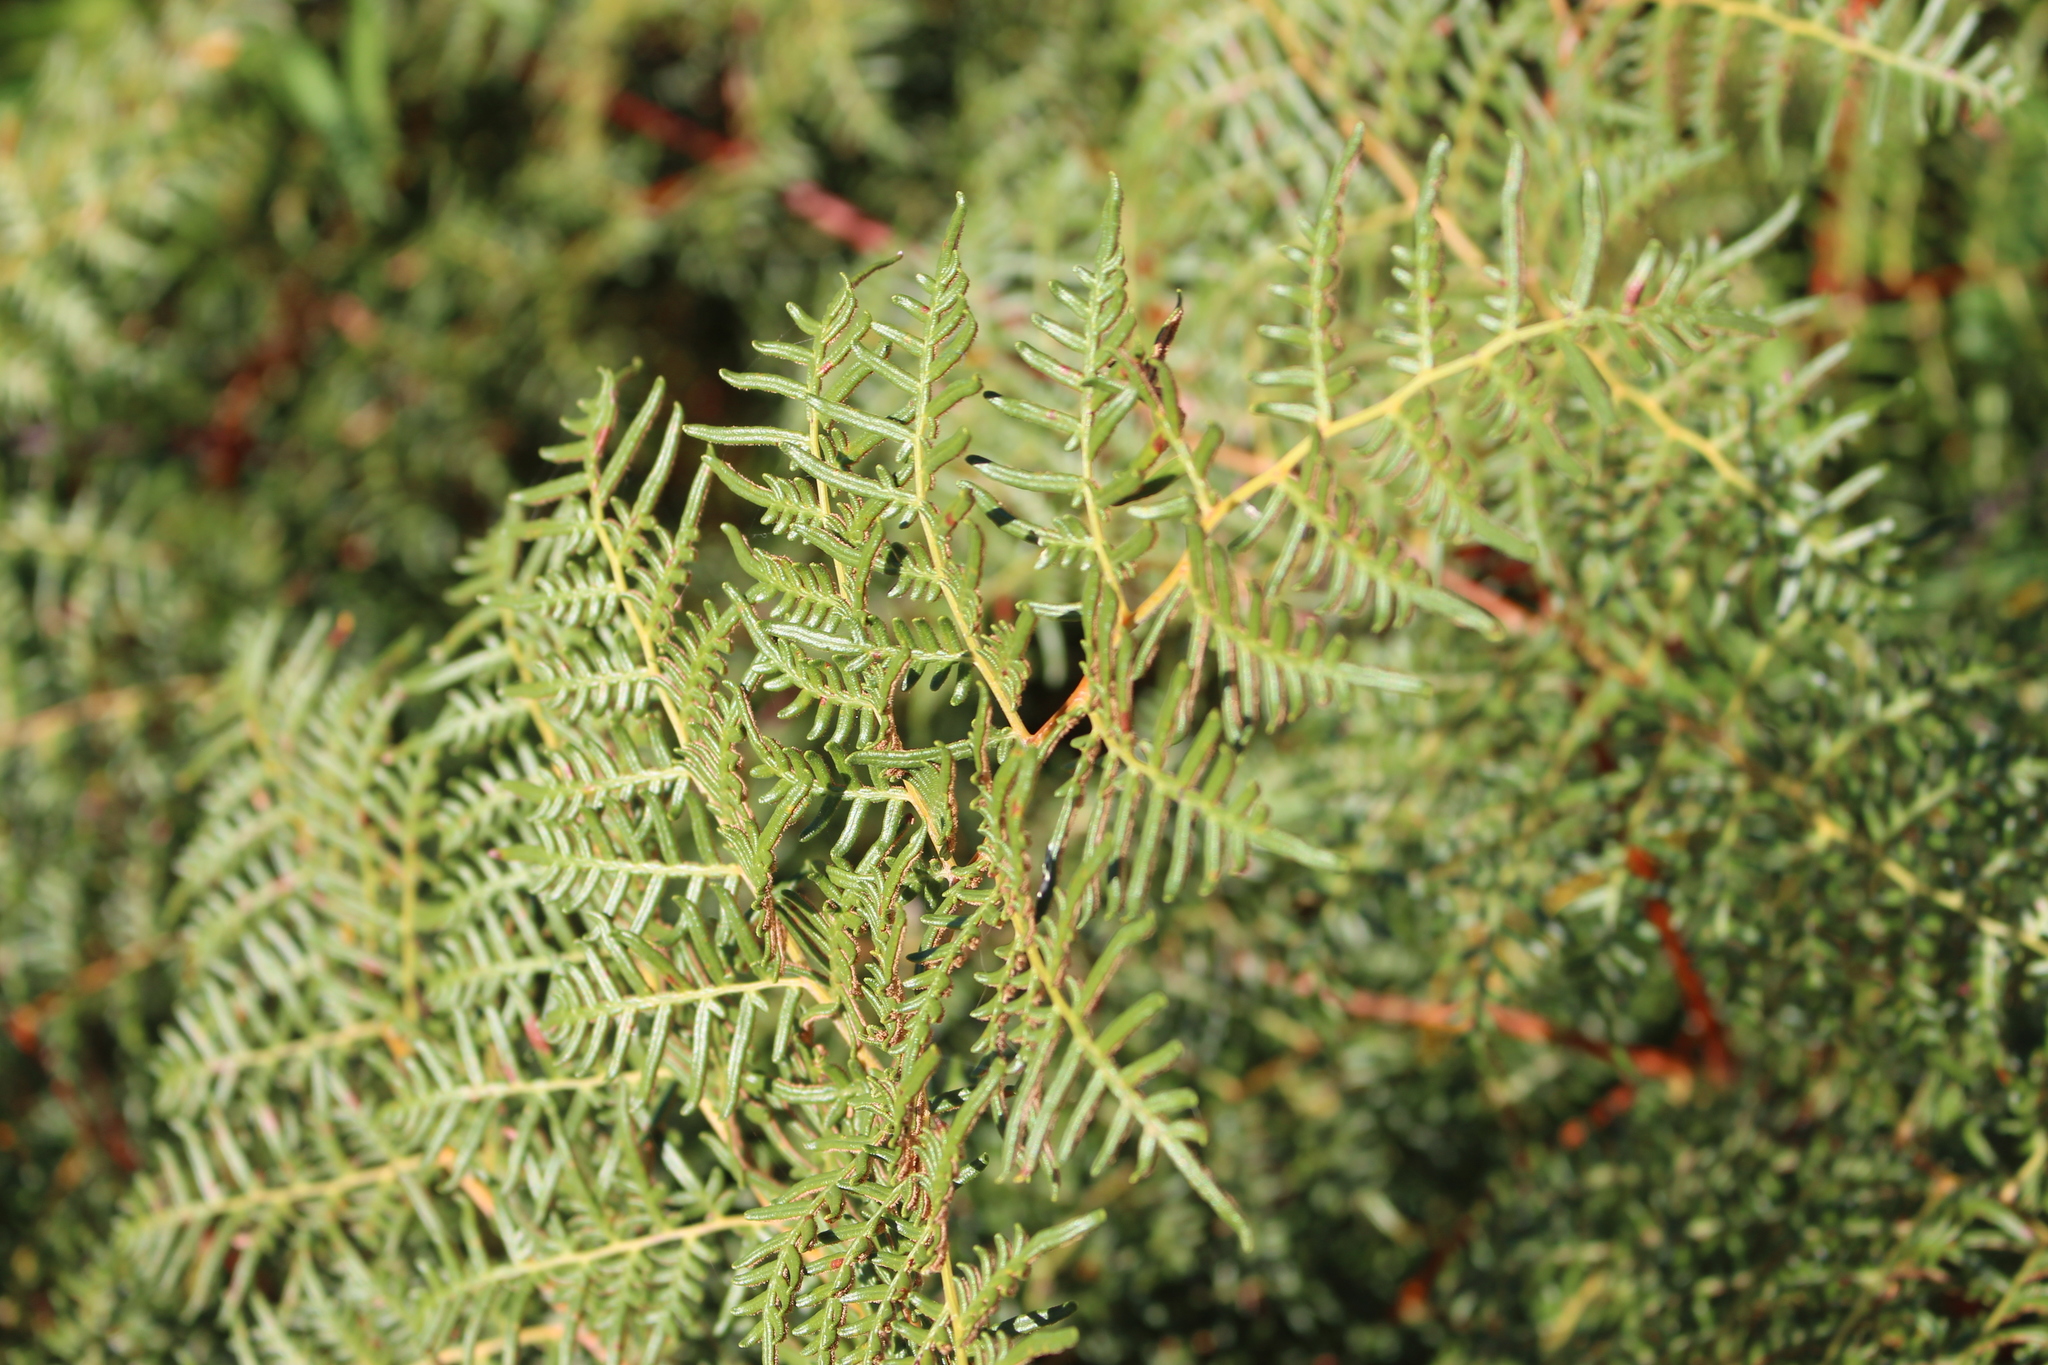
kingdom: Plantae
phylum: Tracheophyta
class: Polypodiopsida
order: Polypodiales
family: Dennstaedtiaceae
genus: Pteridium
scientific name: Pteridium esculentum
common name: Bracken fern
